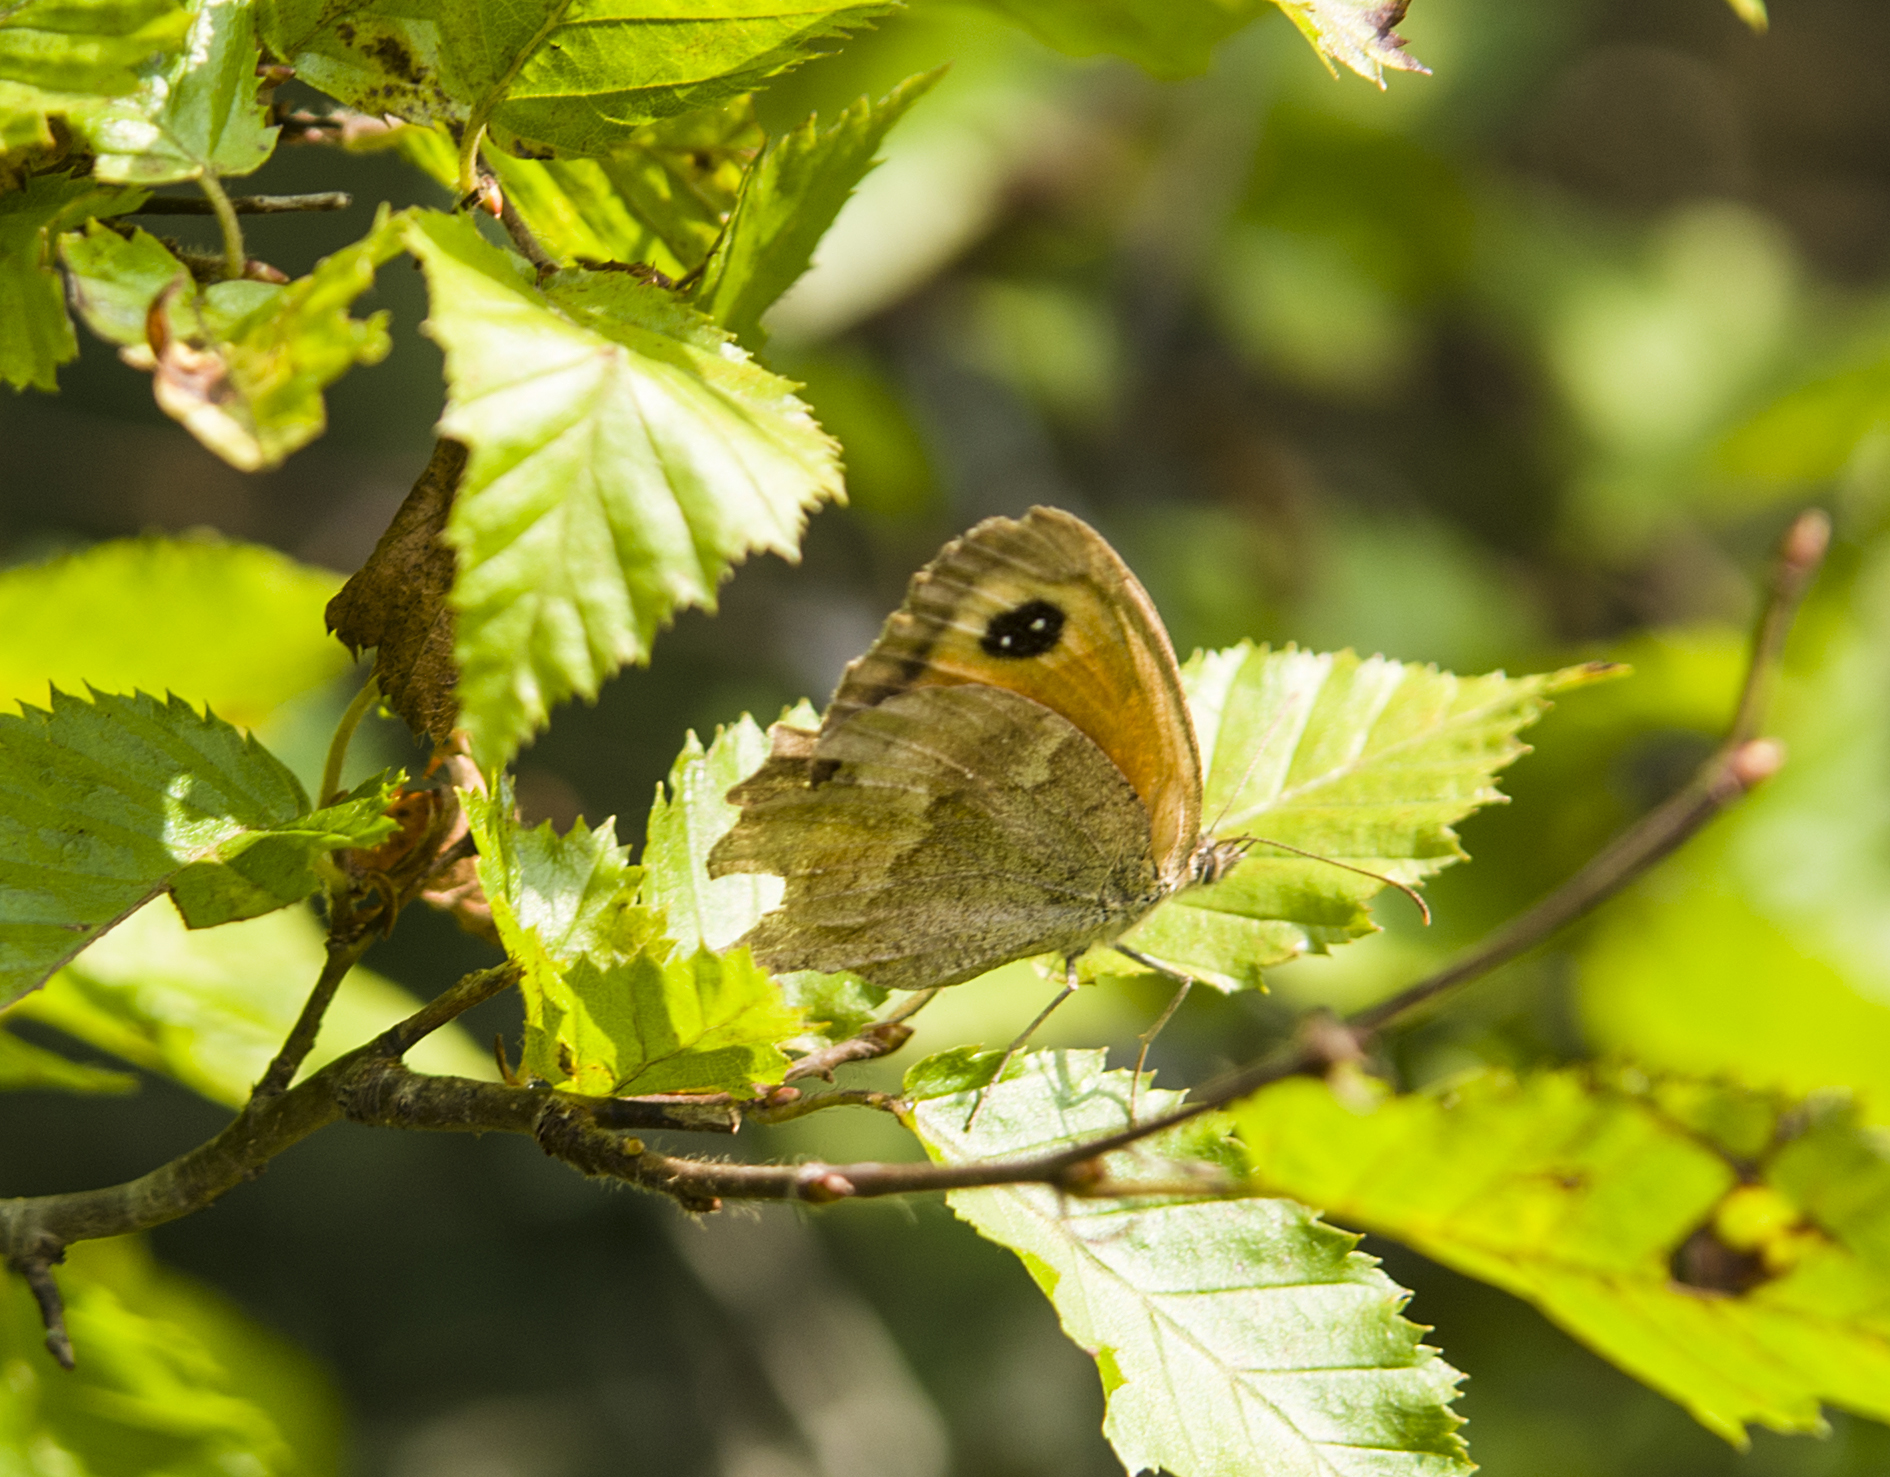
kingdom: Animalia
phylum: Arthropoda
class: Insecta
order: Lepidoptera
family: Nymphalidae
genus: Pyronia
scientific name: Pyronia tithonus
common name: Gatekeeper
